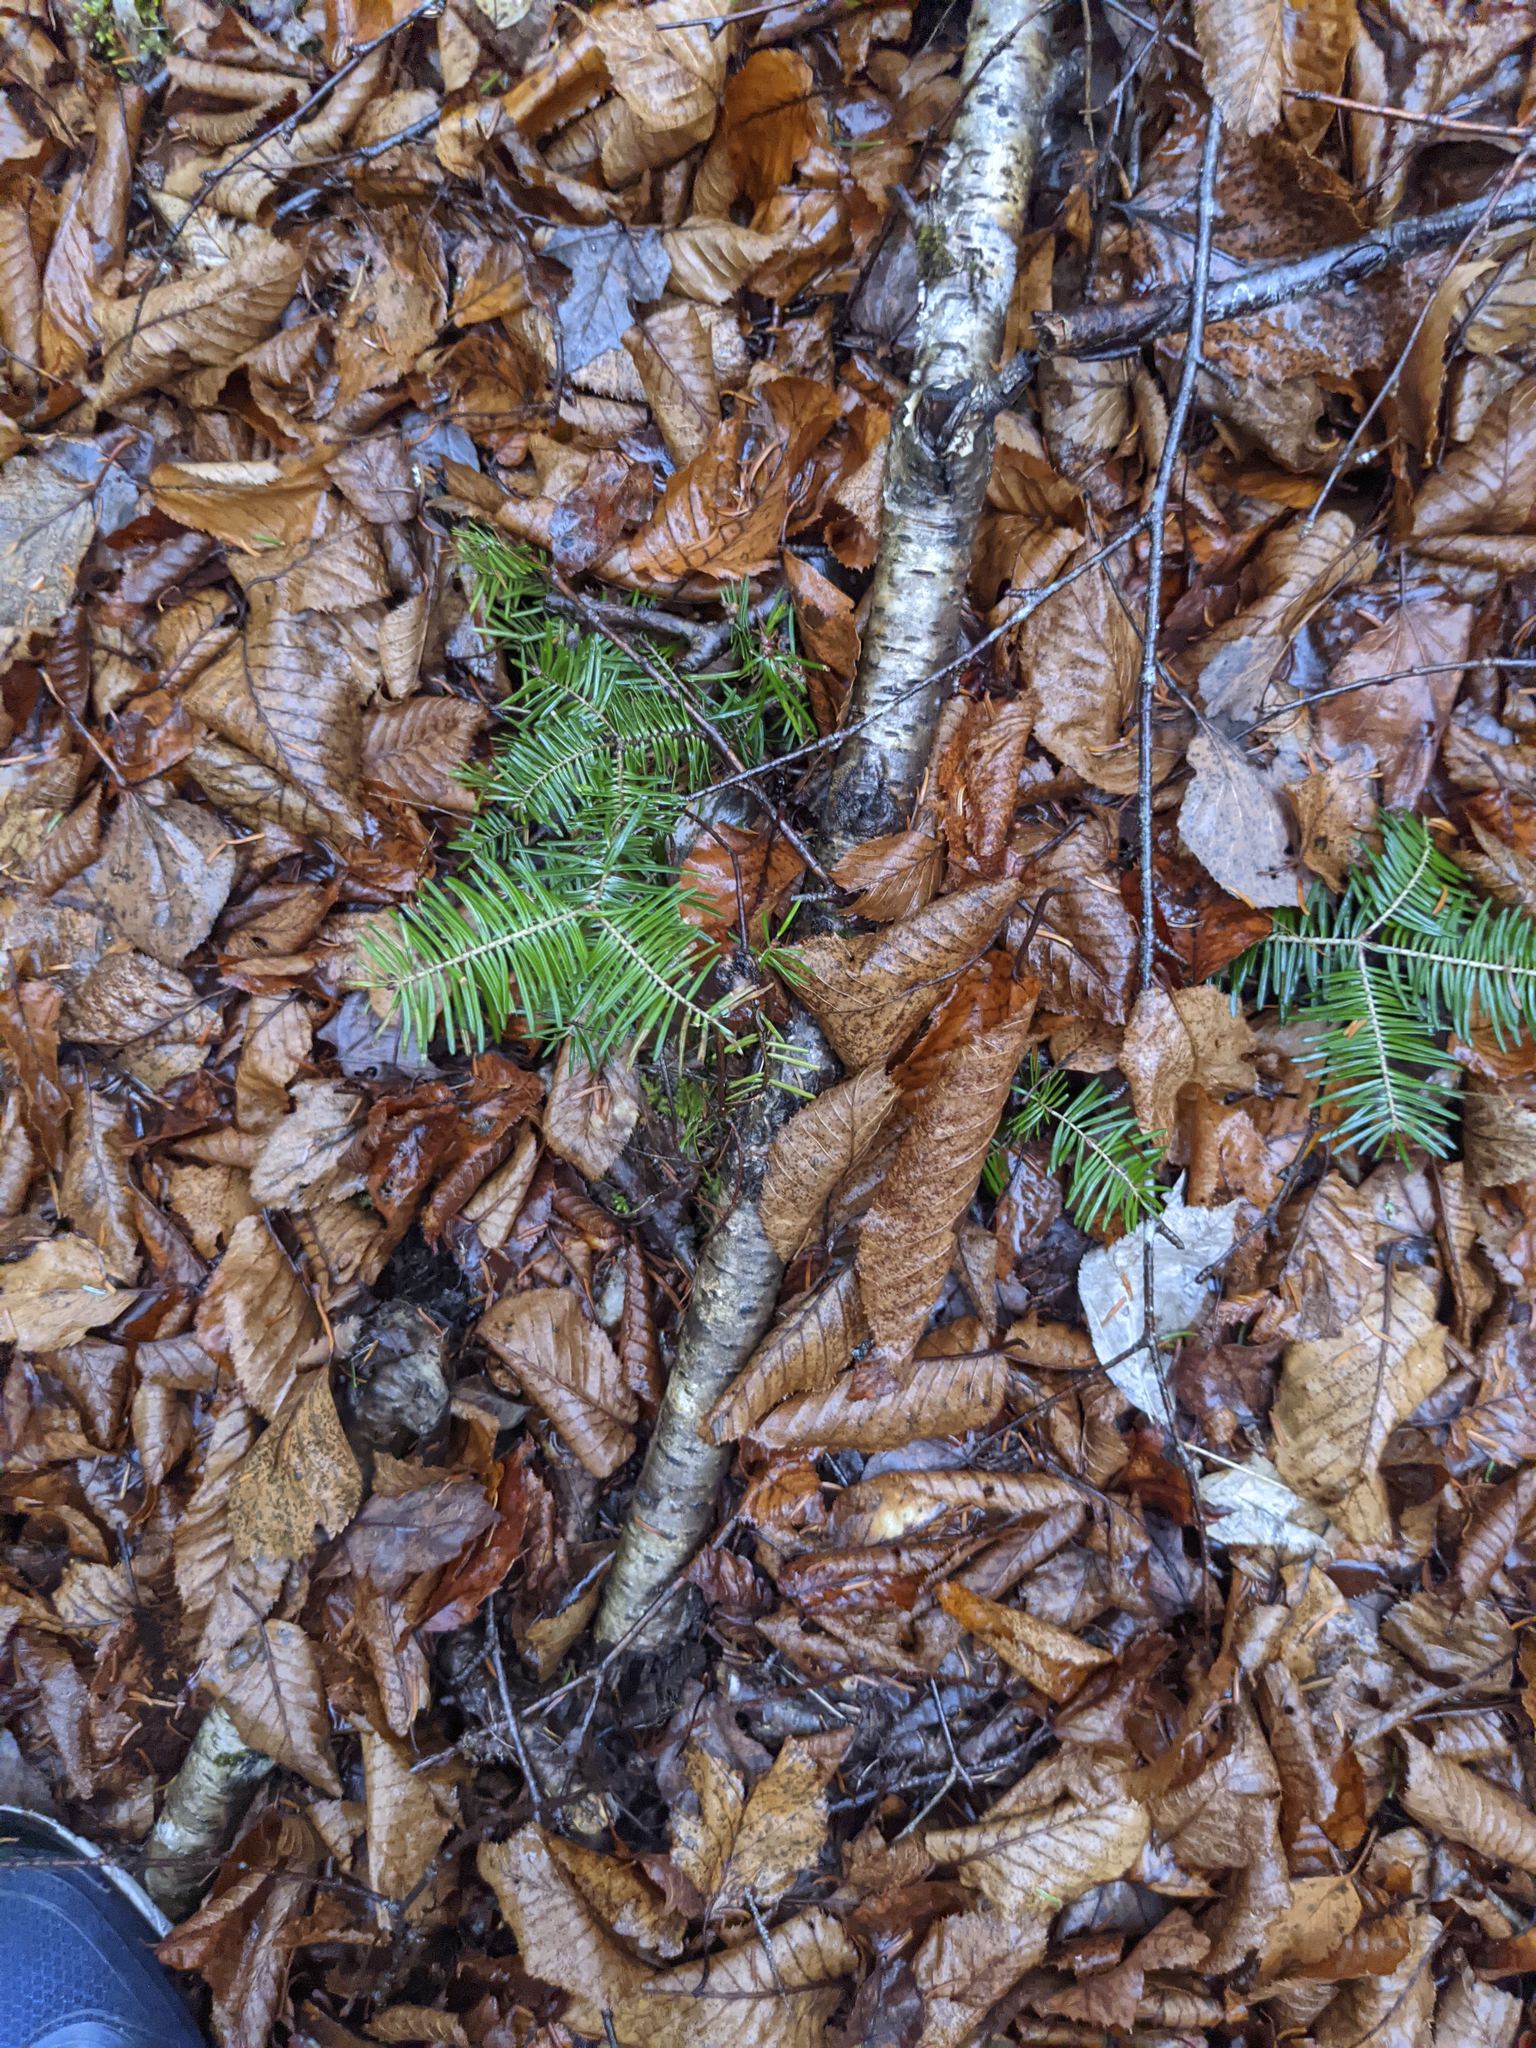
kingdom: Plantae
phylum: Tracheophyta
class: Pinopsida
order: Pinales
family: Pinaceae
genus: Abies
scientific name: Abies balsamea
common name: Balsam fir
